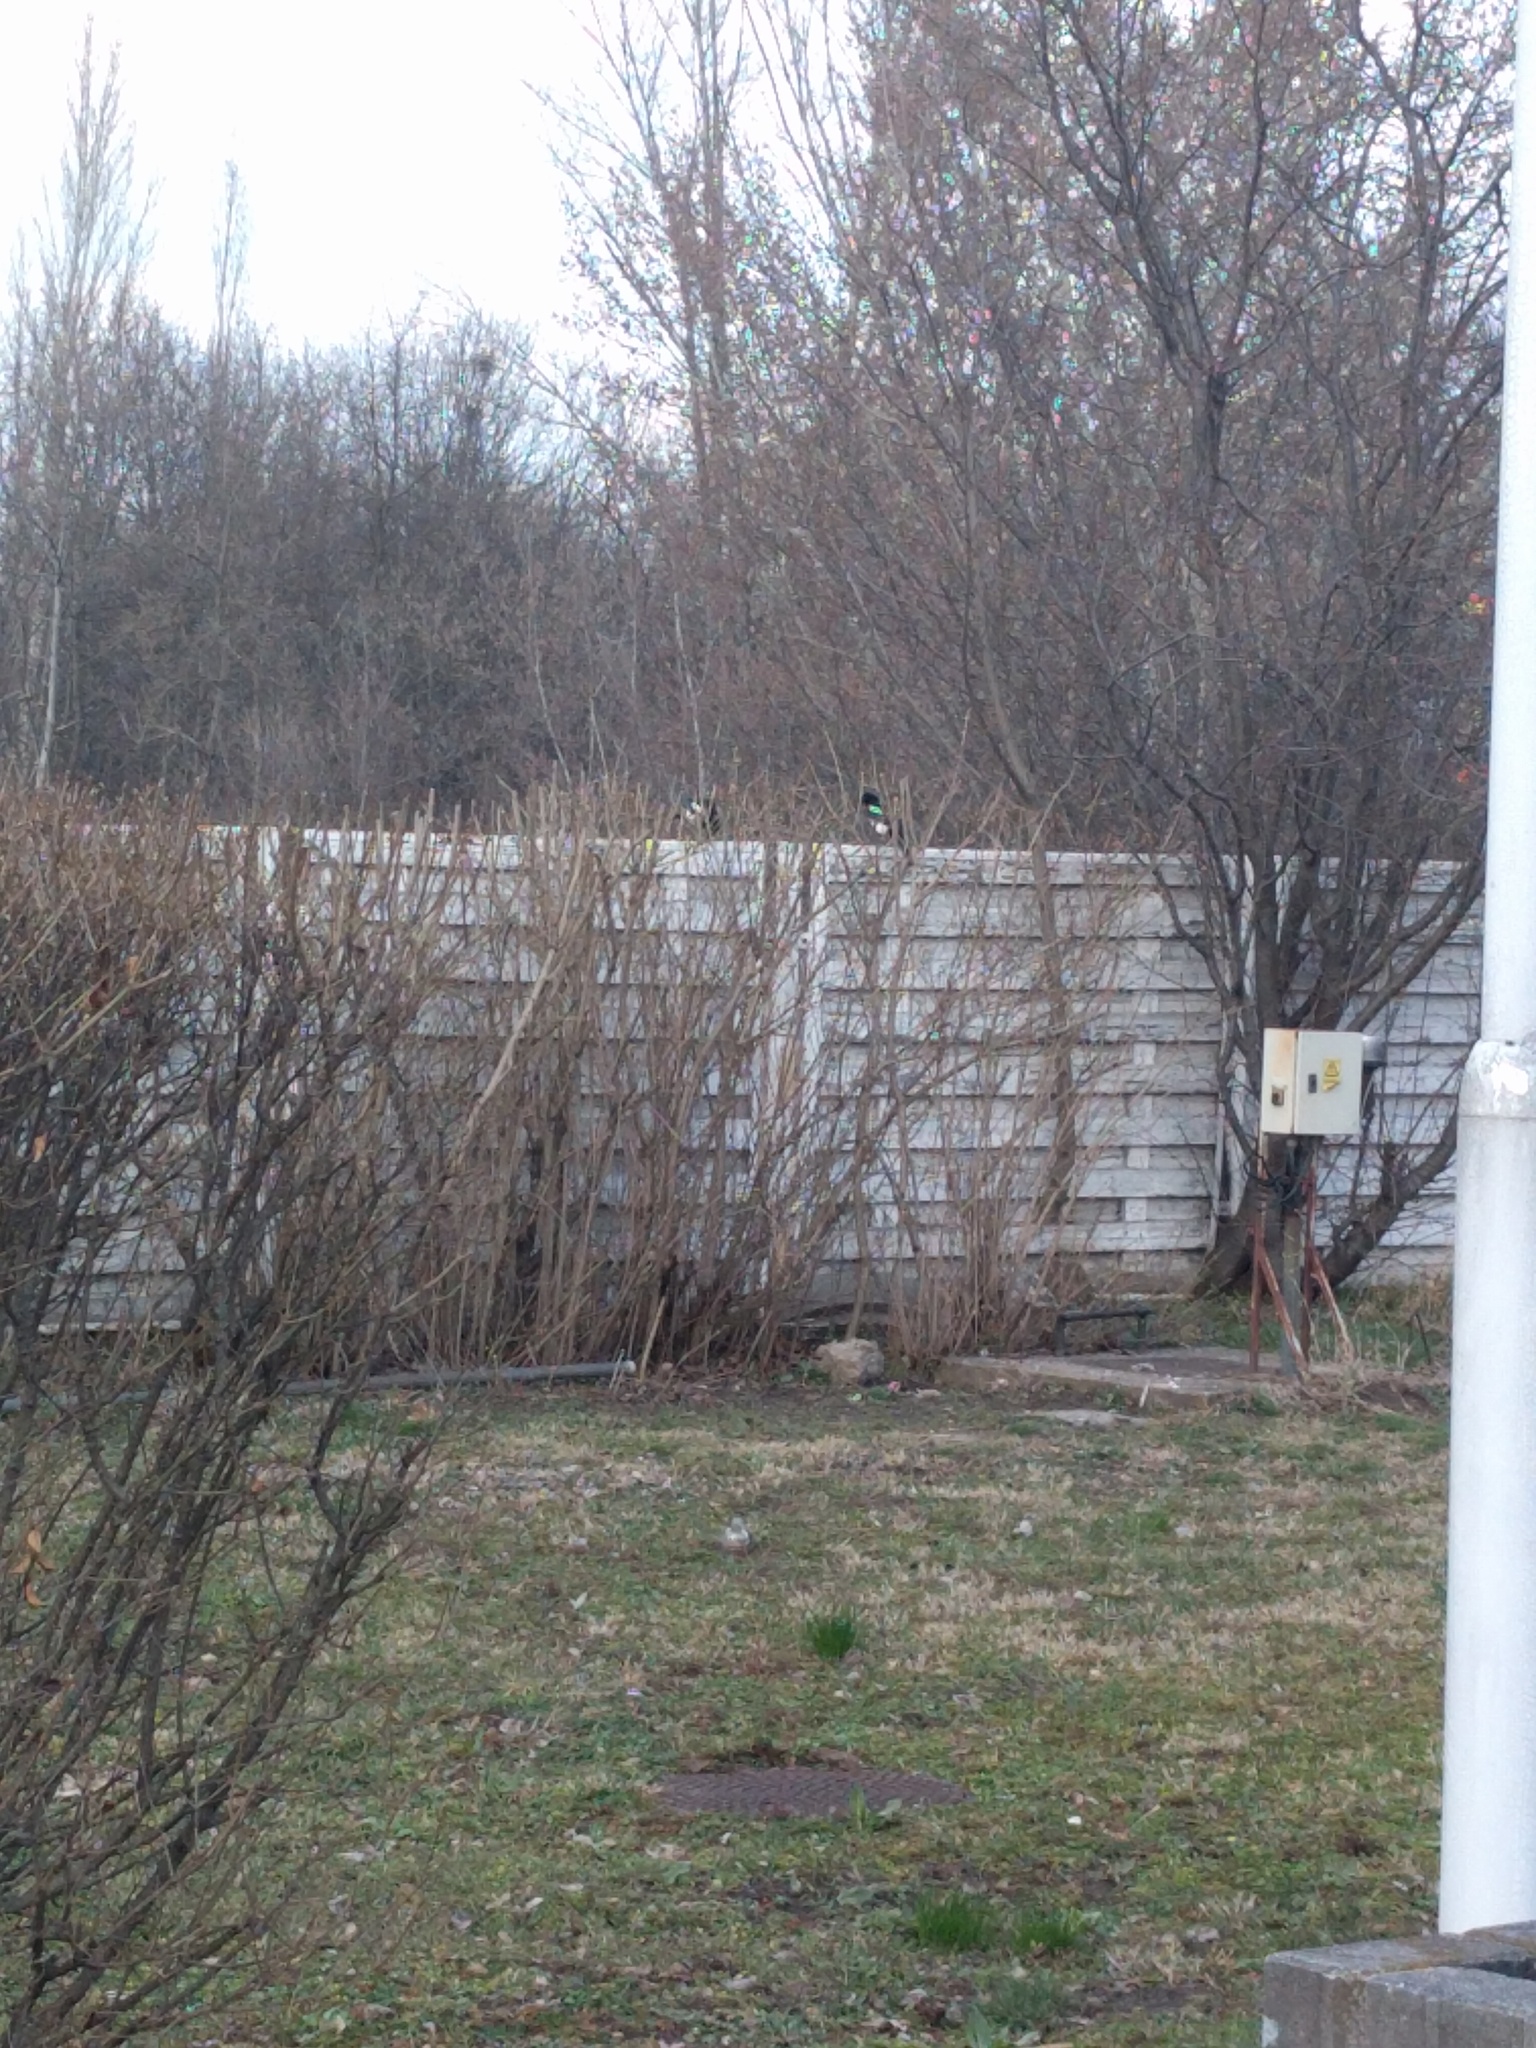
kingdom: Animalia
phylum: Chordata
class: Aves
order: Passeriformes
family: Corvidae
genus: Pica
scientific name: Pica pica
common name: Eurasian magpie
